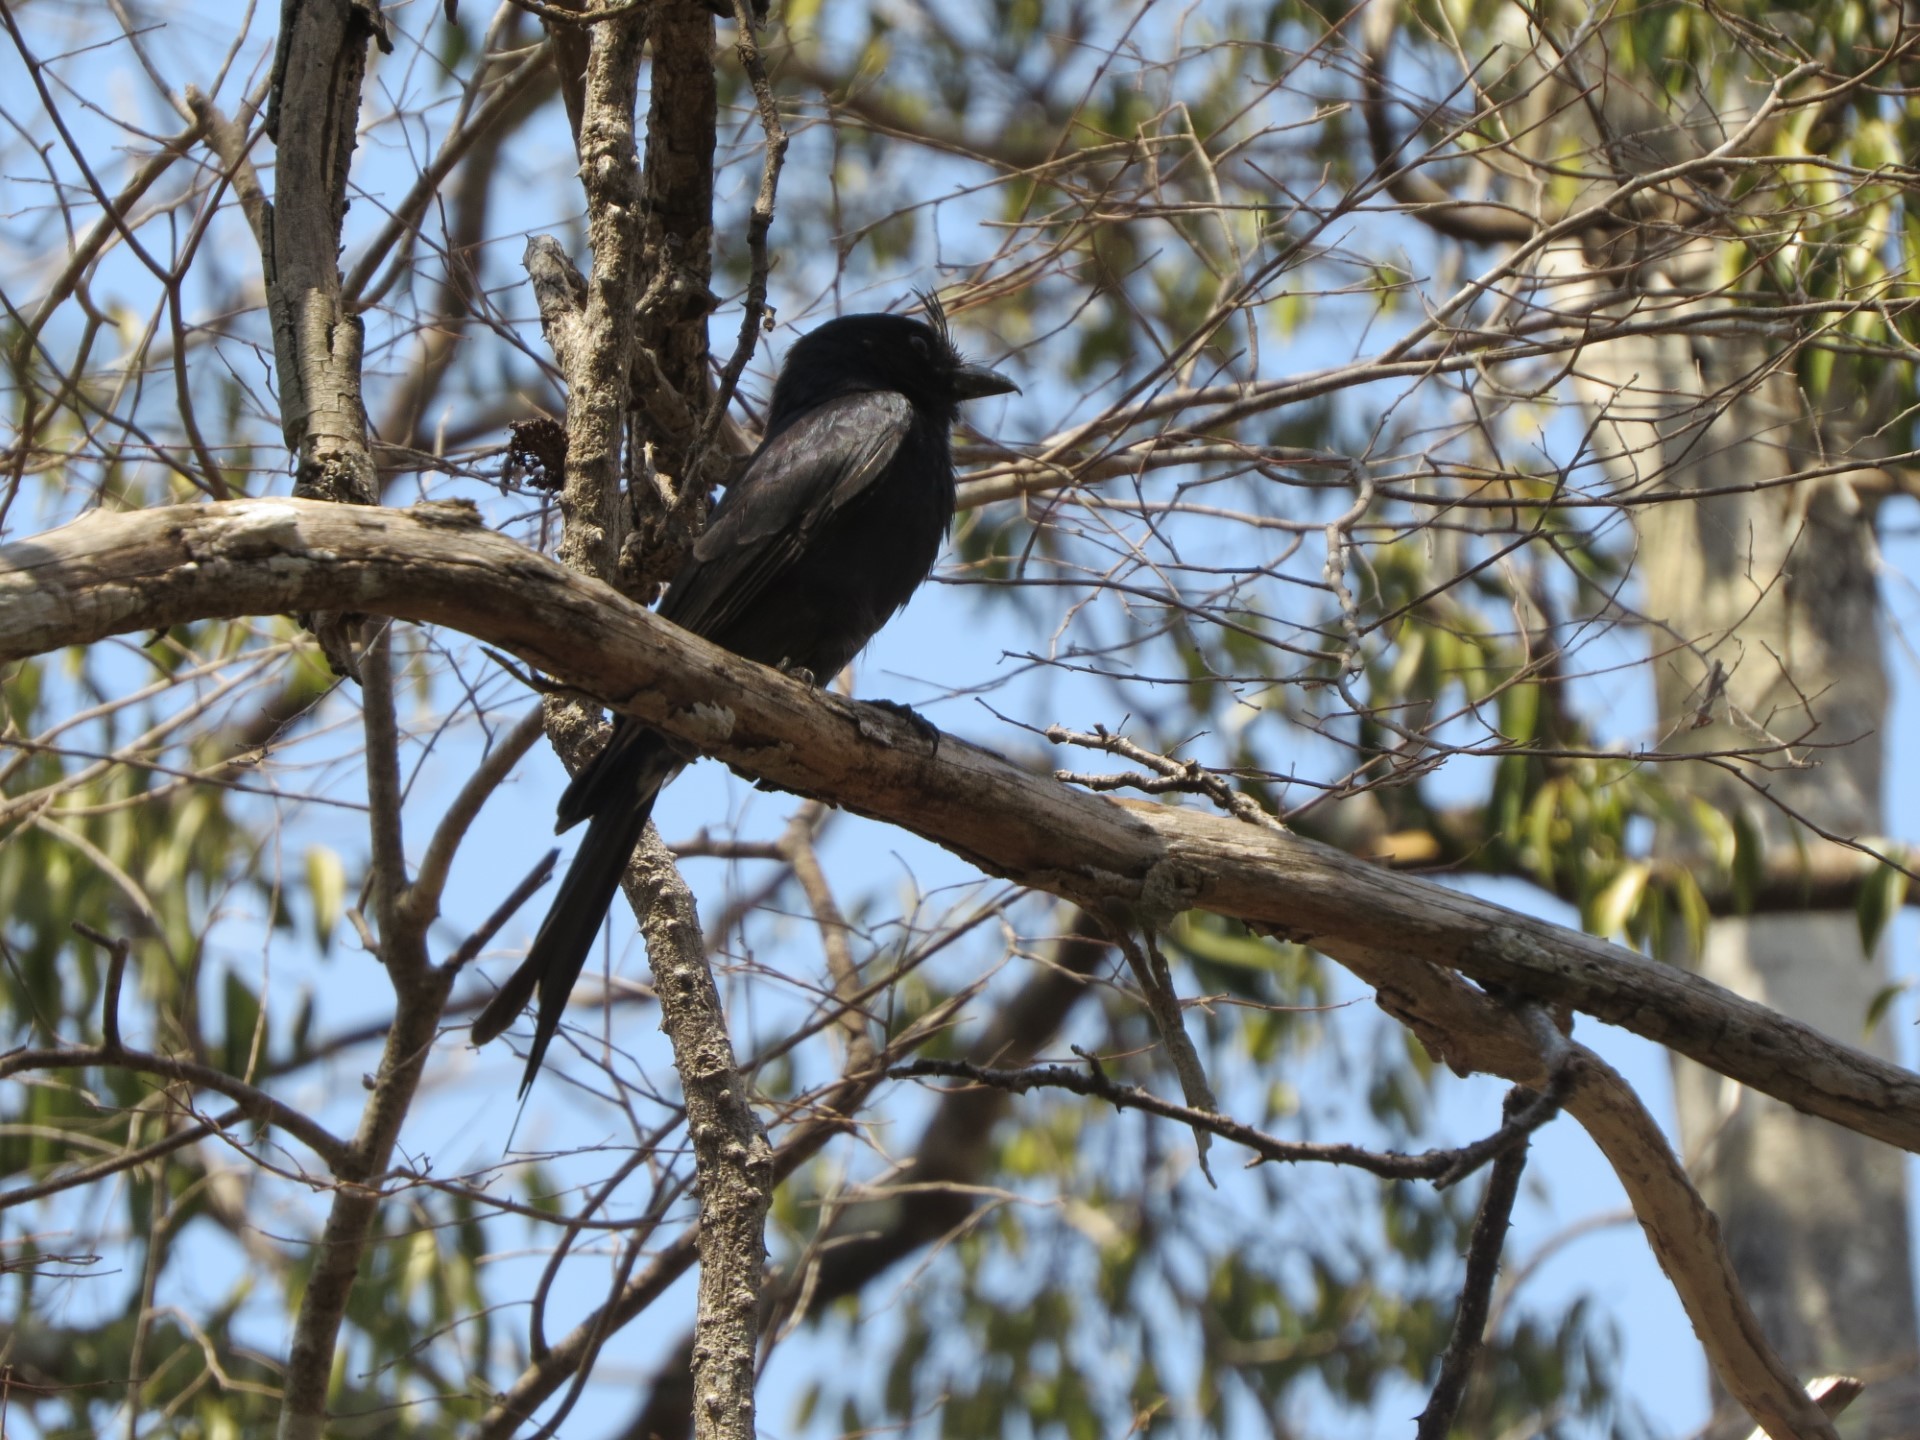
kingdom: Animalia
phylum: Chordata
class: Aves
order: Passeriformes
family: Dicruridae
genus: Dicrurus
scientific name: Dicrurus forficatus
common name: Crested drongo
